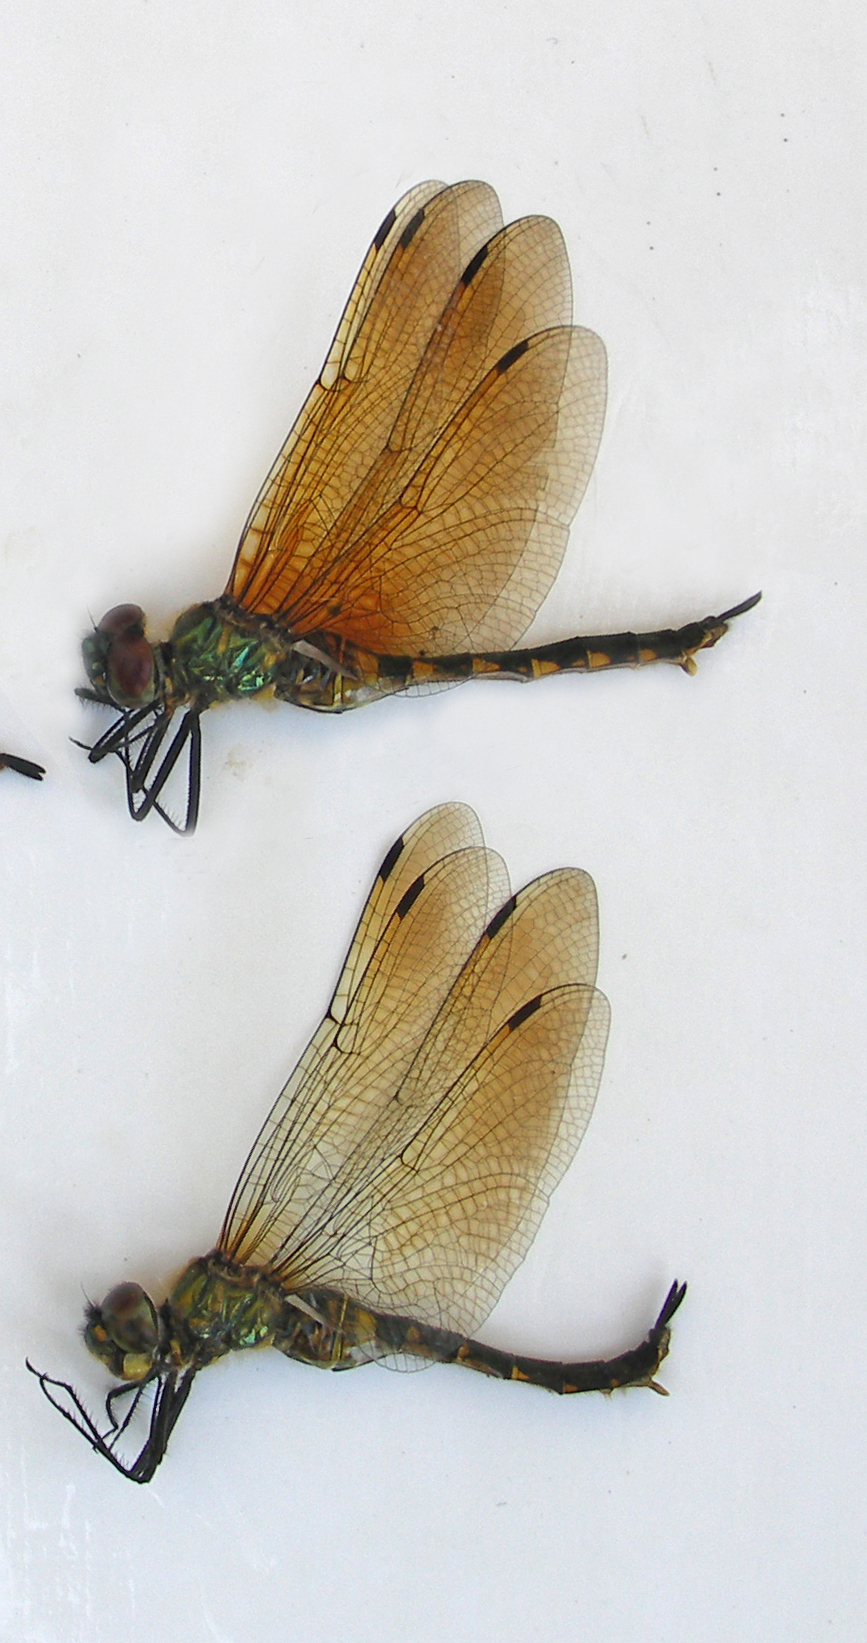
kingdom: Animalia
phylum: Arthropoda
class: Insecta
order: Odonata
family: Corduliidae
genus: Somatochlora
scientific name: Somatochlora flavomaculata
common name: Yellow-spotted emerald
